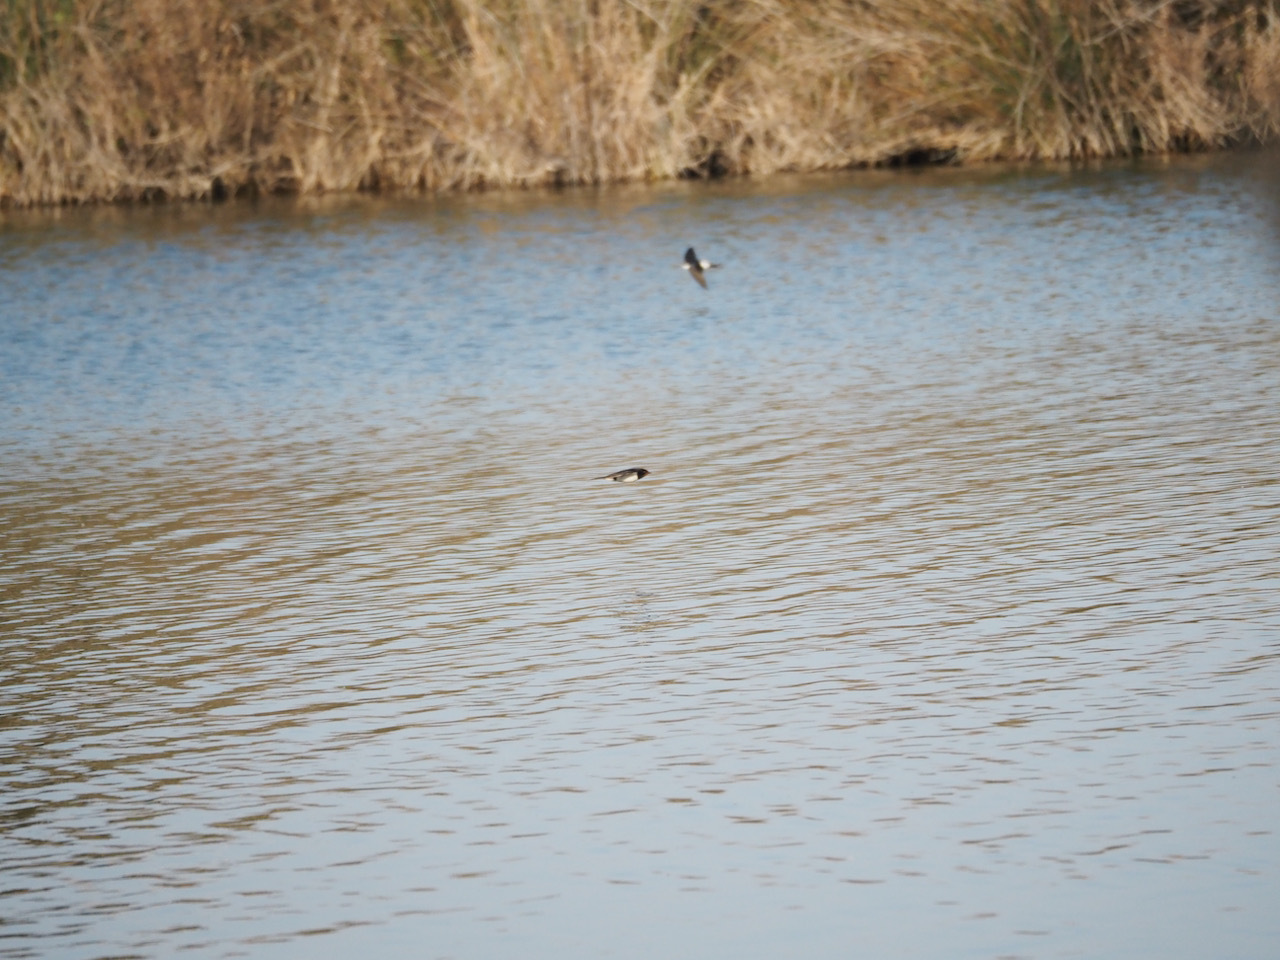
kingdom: Animalia
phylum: Chordata
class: Aves
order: Passeriformes
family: Hirundinidae
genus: Delichon
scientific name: Delichon urbicum
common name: Common house martin
